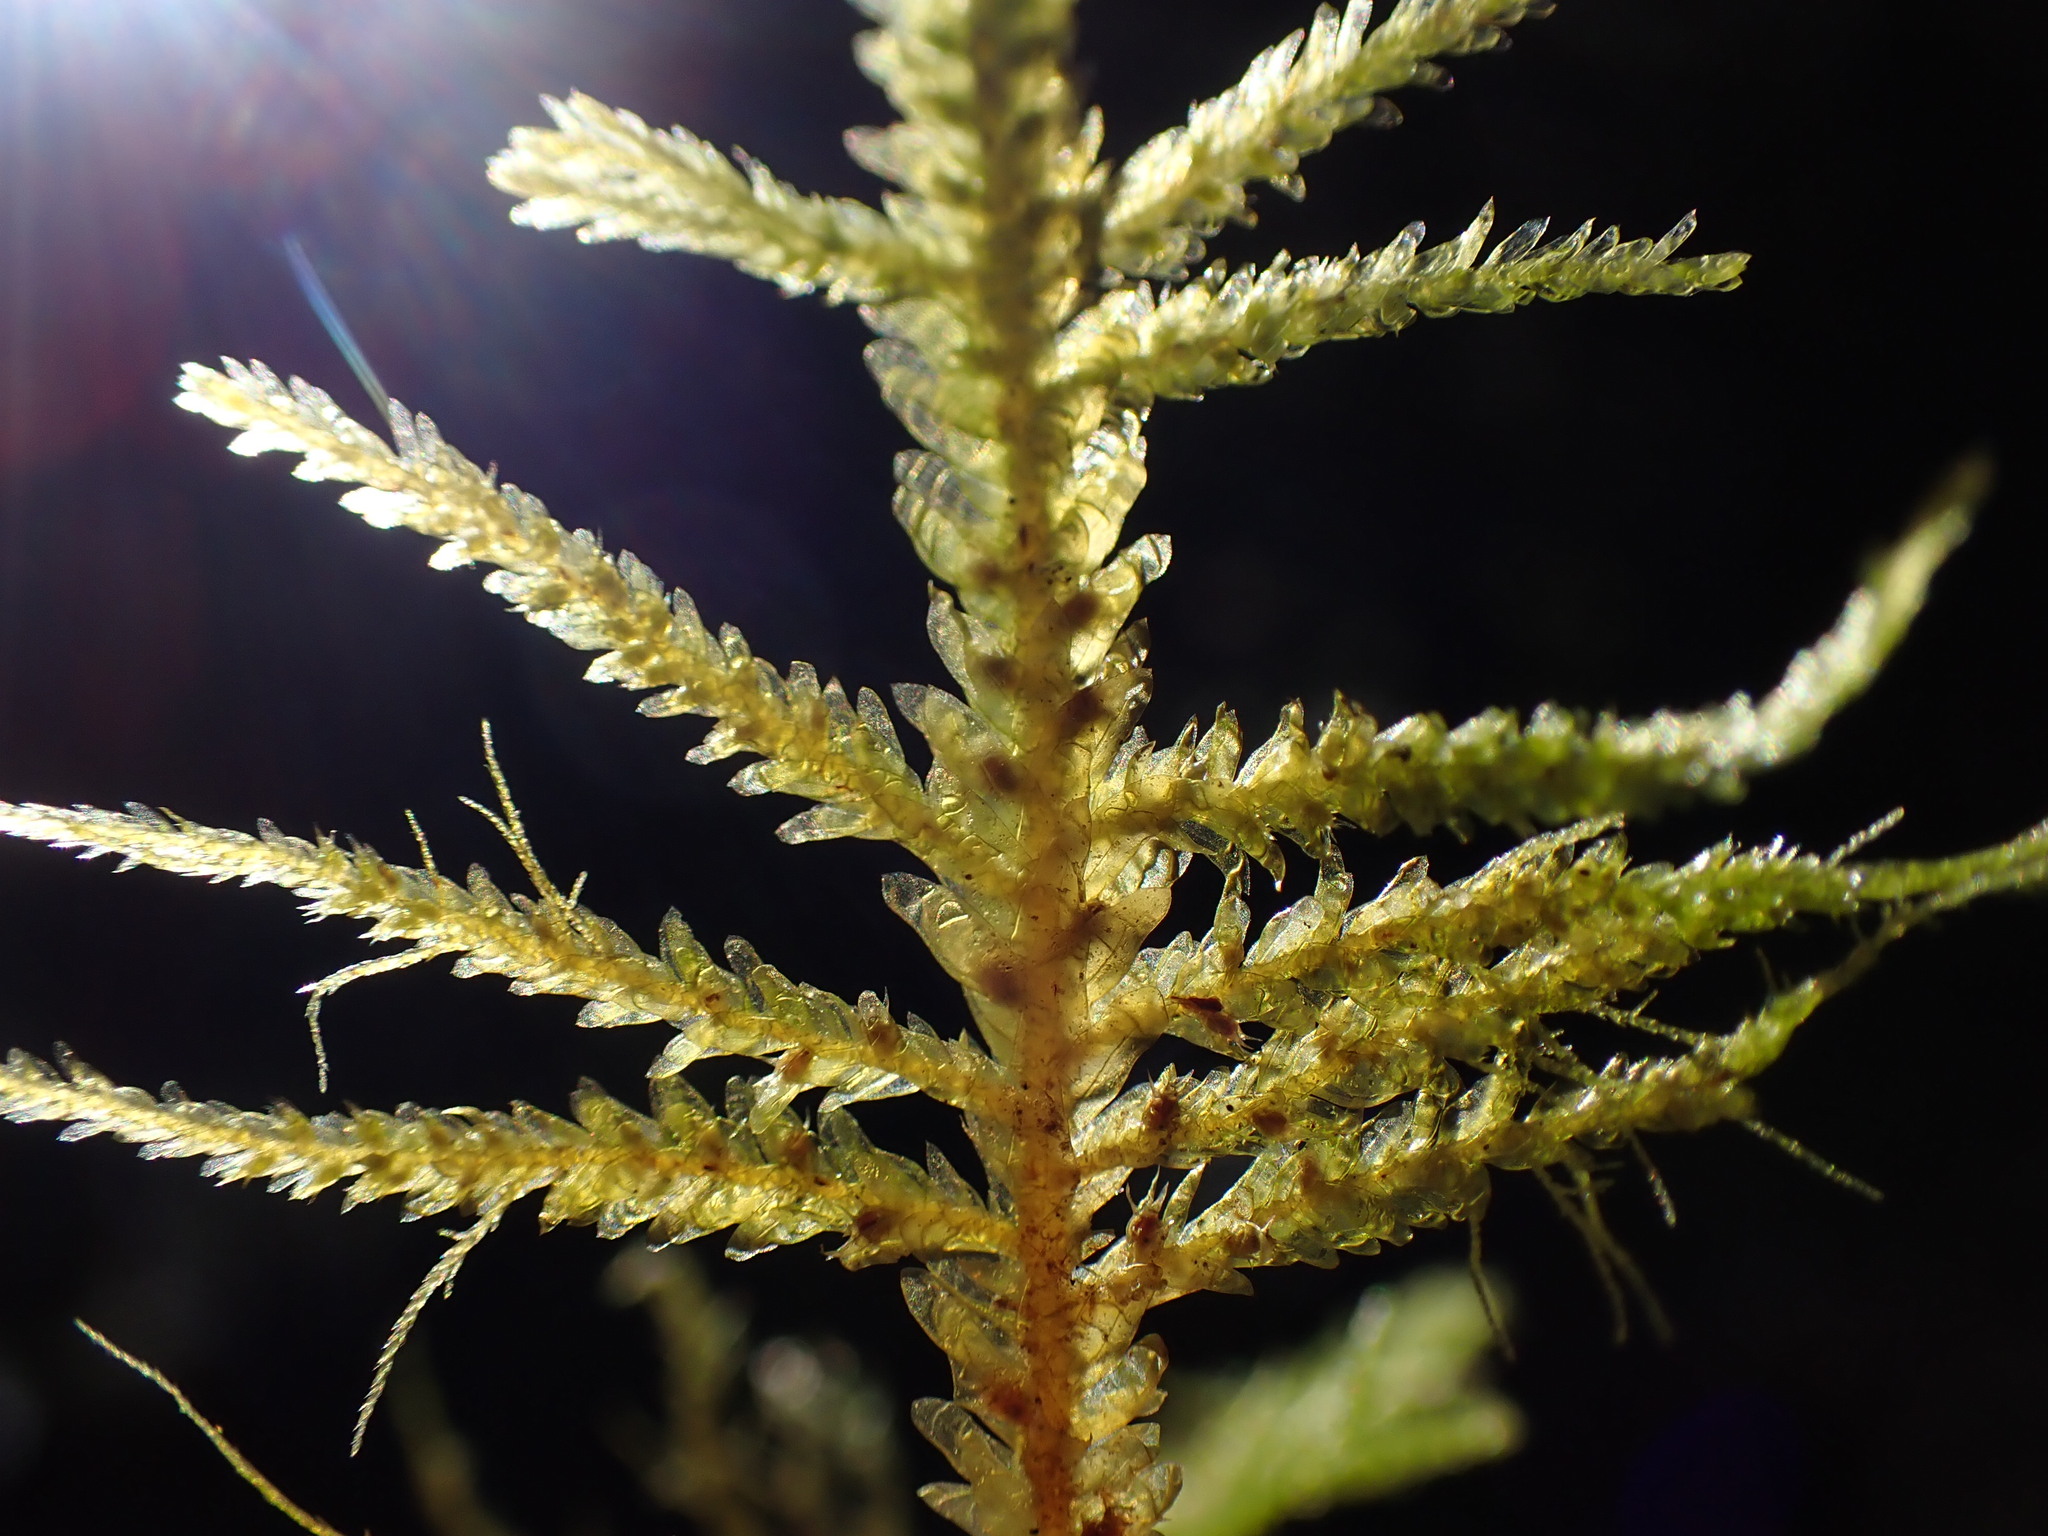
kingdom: Plantae
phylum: Bryophyta
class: Bryopsida
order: Hypnales
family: Neckeraceae
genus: Metaneckera
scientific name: Metaneckera menziesii
